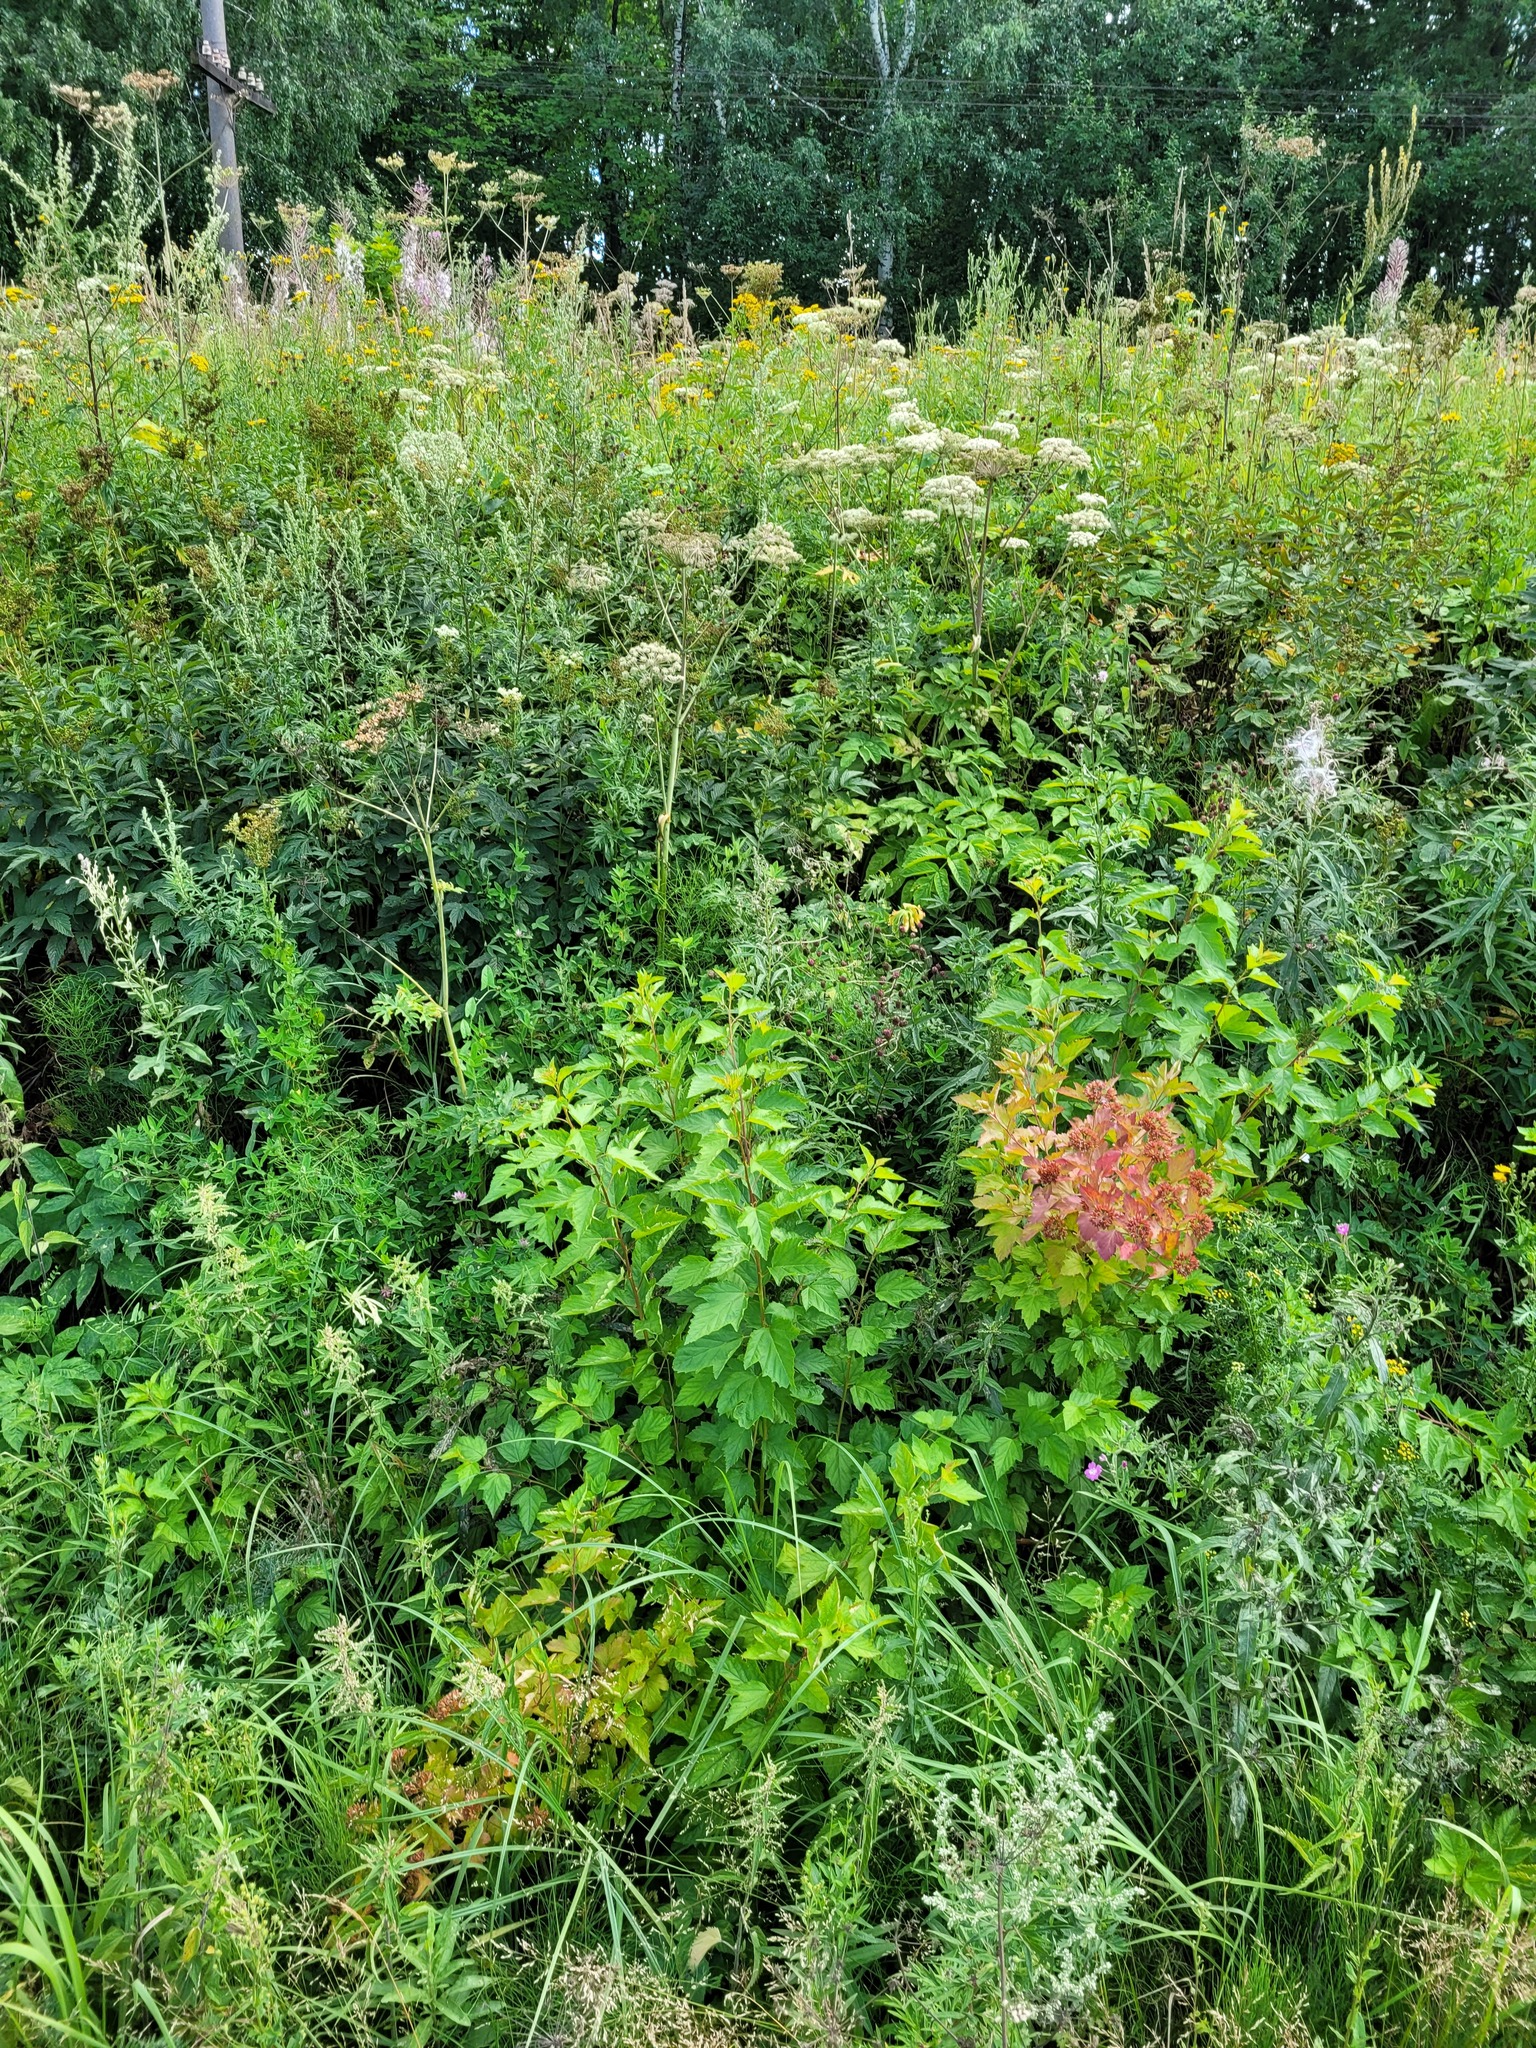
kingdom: Plantae
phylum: Tracheophyta
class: Magnoliopsida
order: Rosales
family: Rosaceae
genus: Physocarpus
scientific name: Physocarpus opulifolius
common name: Ninebark
